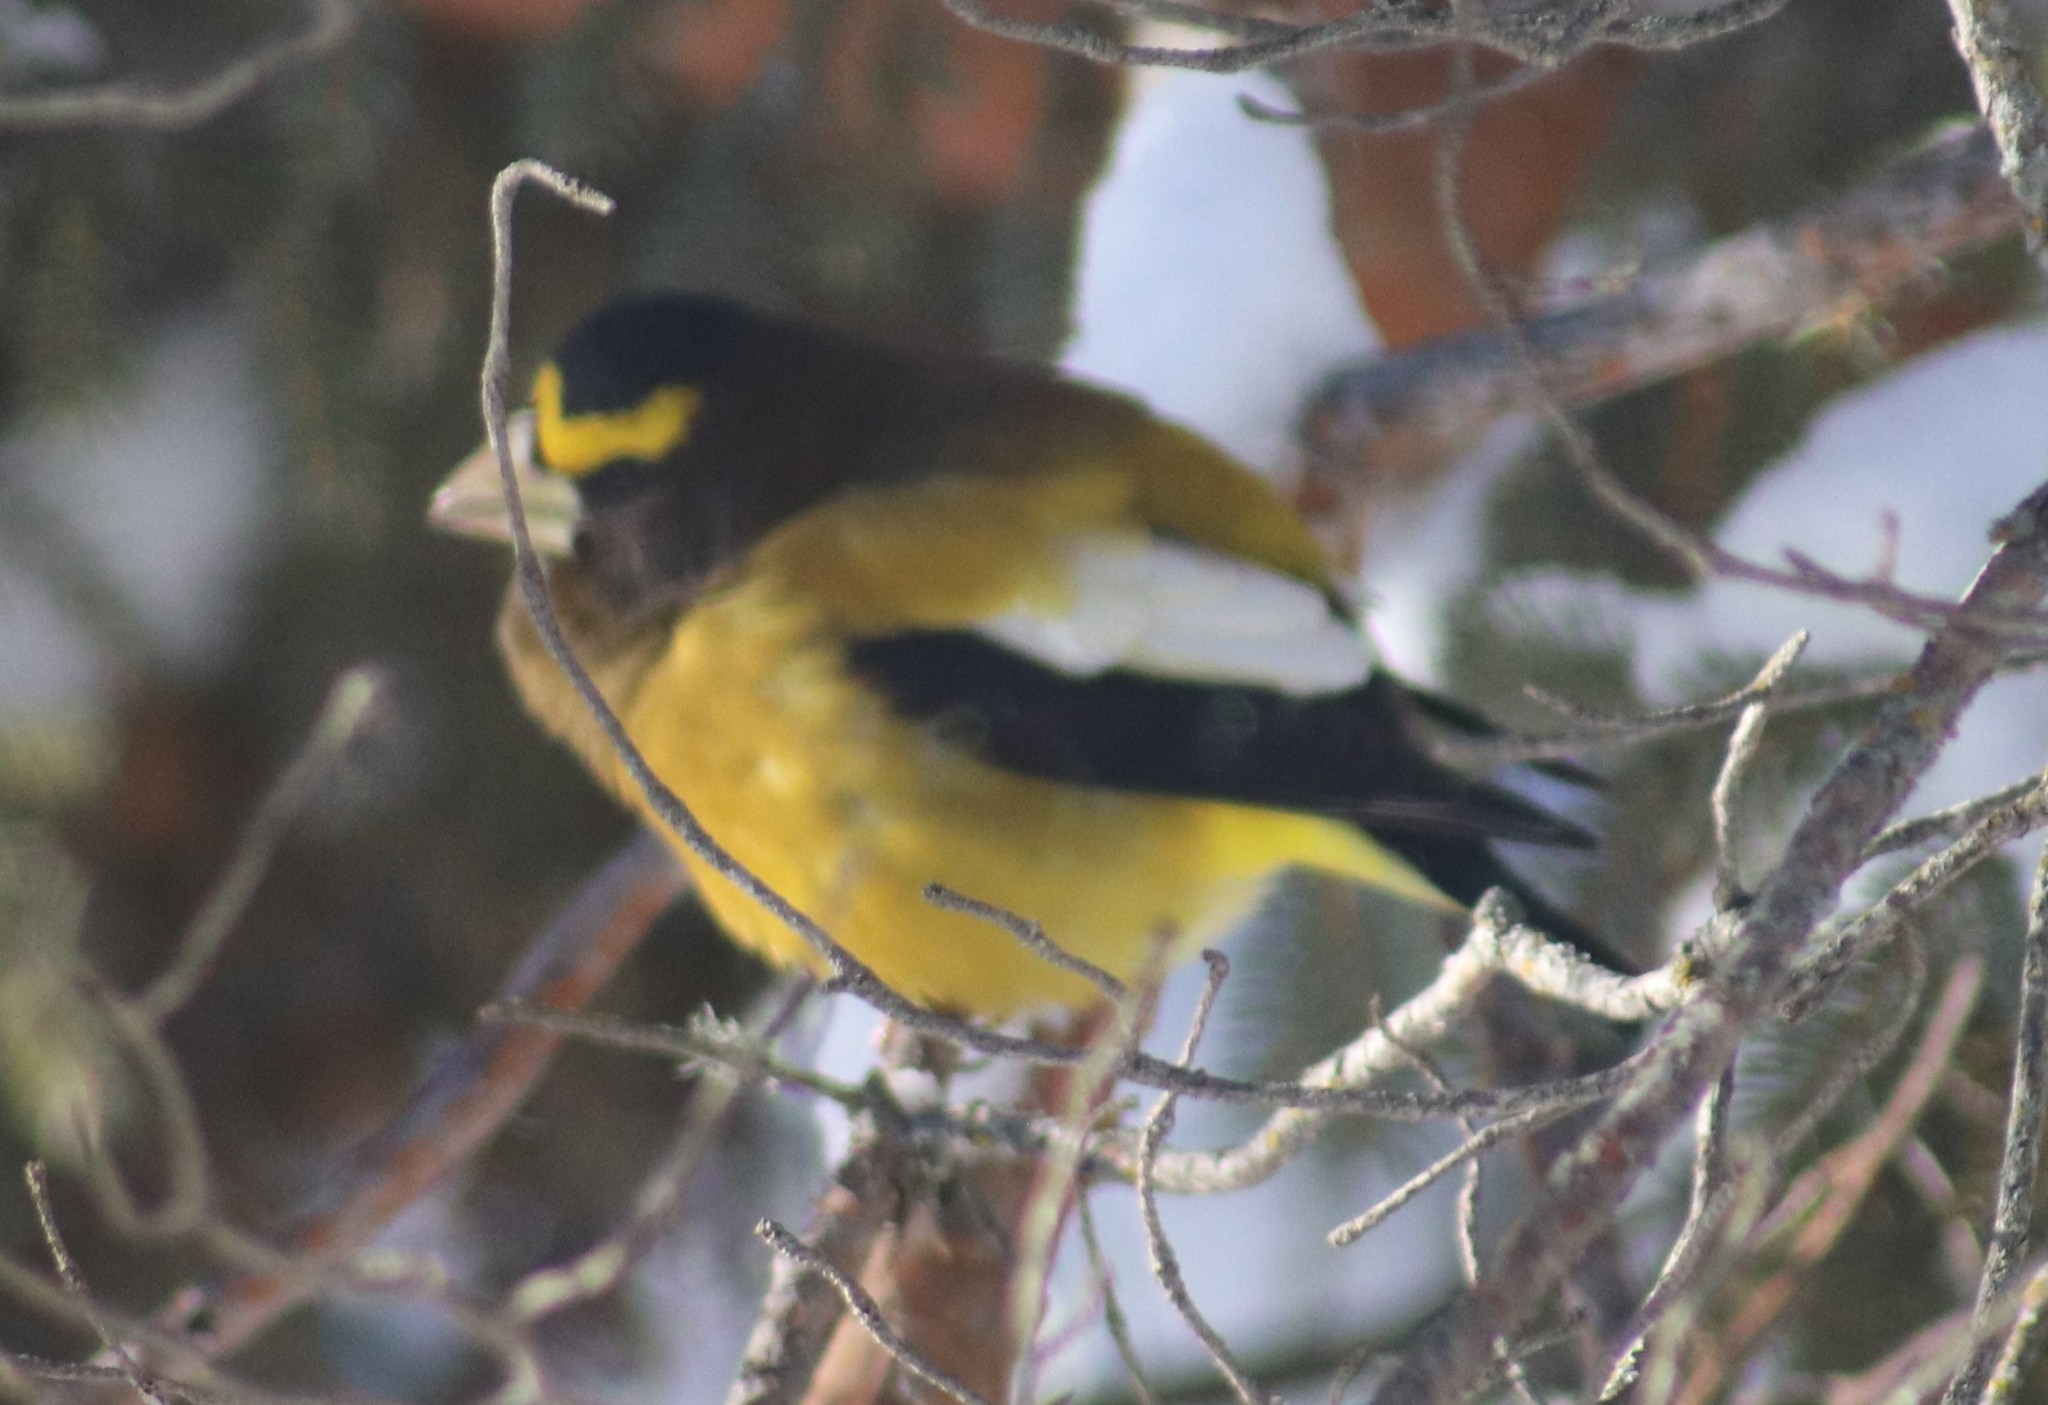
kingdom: Animalia
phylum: Chordata
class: Aves
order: Passeriformes
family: Fringillidae
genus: Hesperiphona
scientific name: Hesperiphona vespertina
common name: Evening grosbeak
